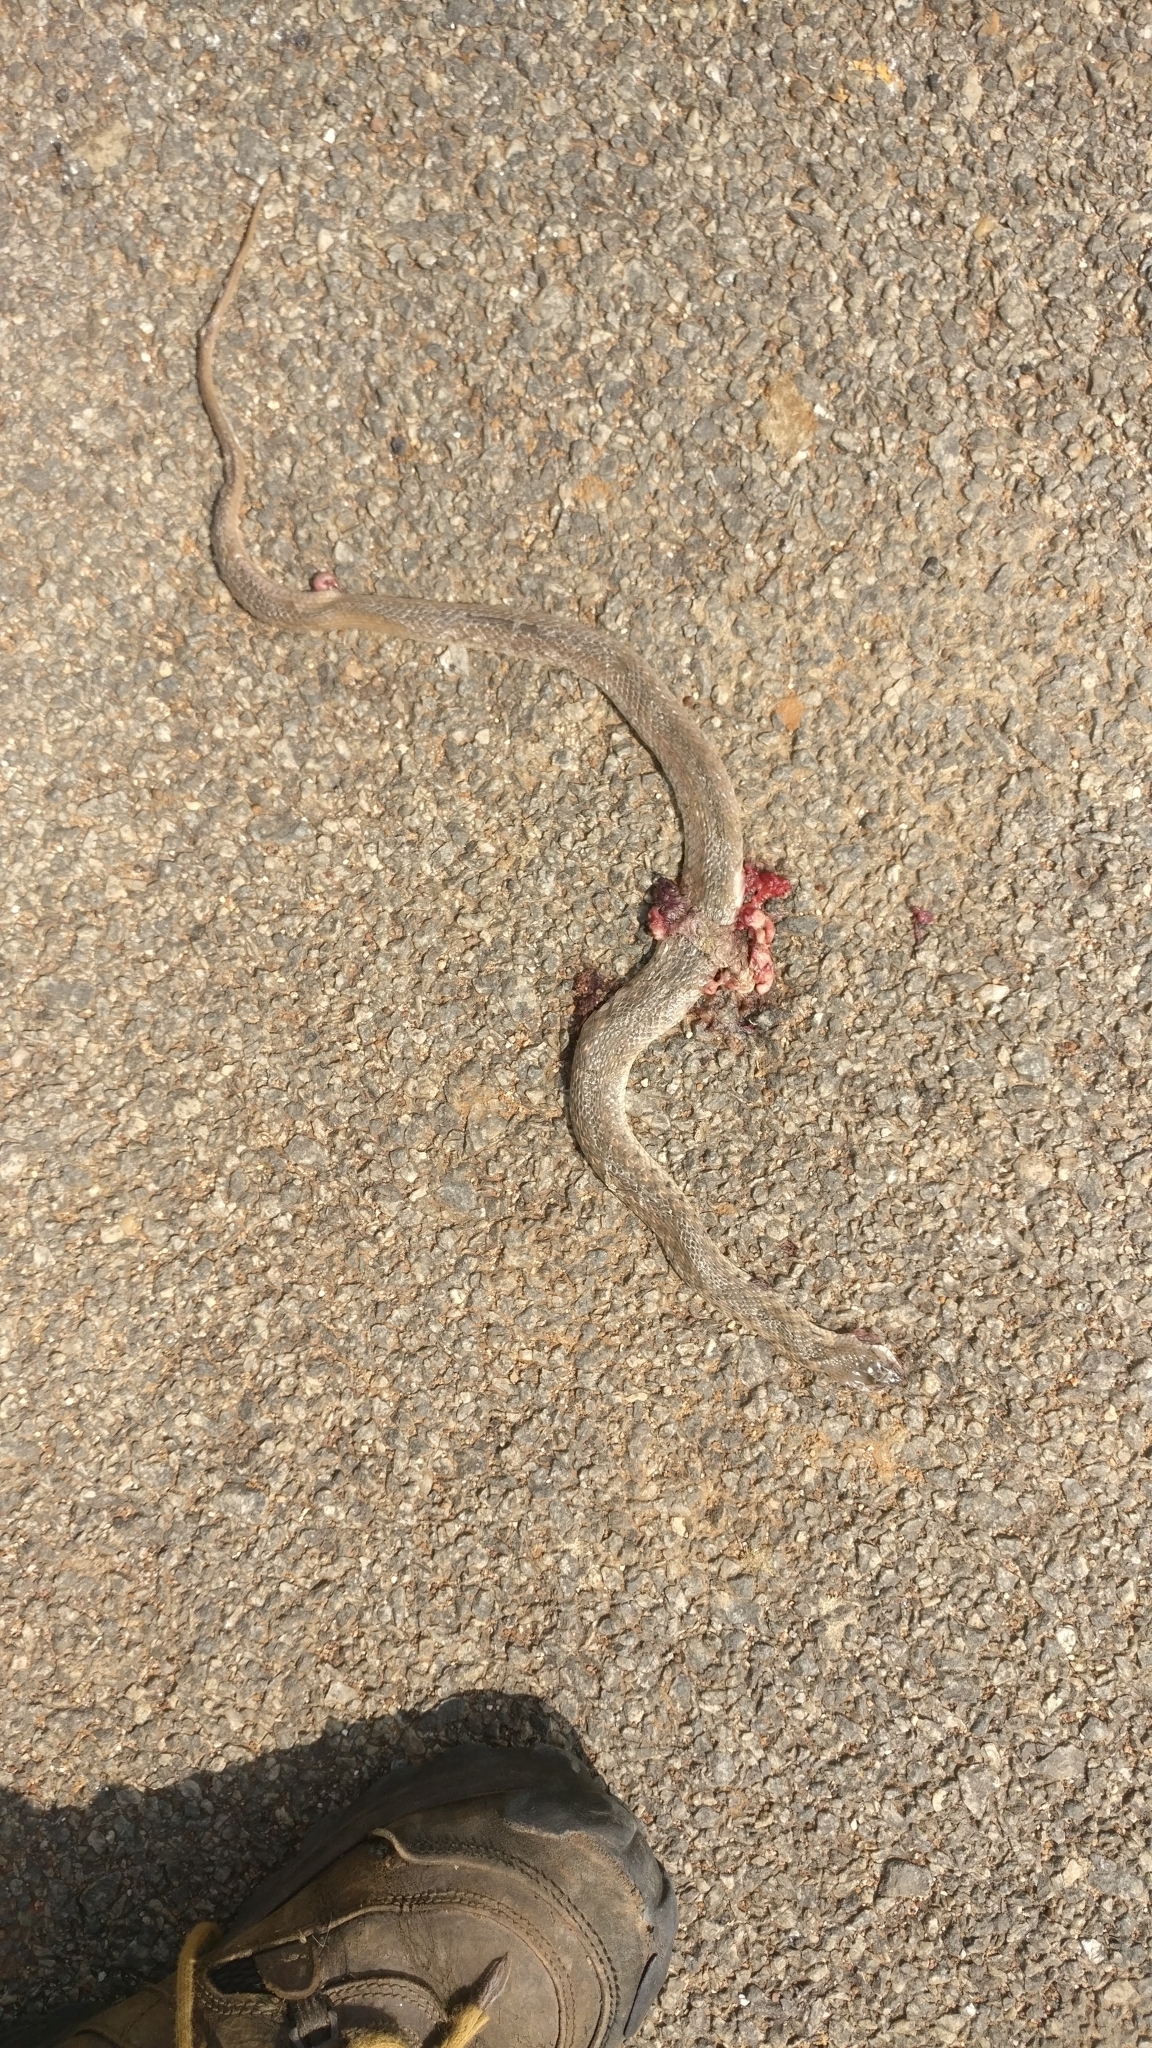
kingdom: Animalia
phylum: Chordata
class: Squamata
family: Colubridae
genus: Fowlea
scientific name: Fowlea piscator
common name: Asiatic water snake
